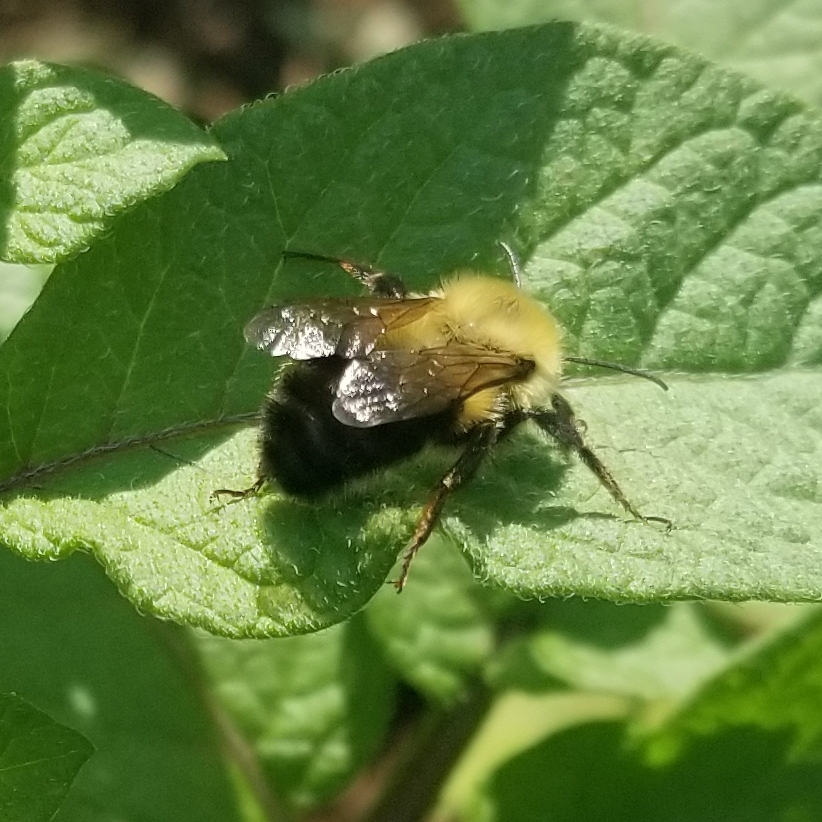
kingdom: Animalia
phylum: Arthropoda
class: Insecta
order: Hymenoptera
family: Apidae
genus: Bombus
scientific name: Bombus bimaculatus
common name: Two-spotted bumble bee
